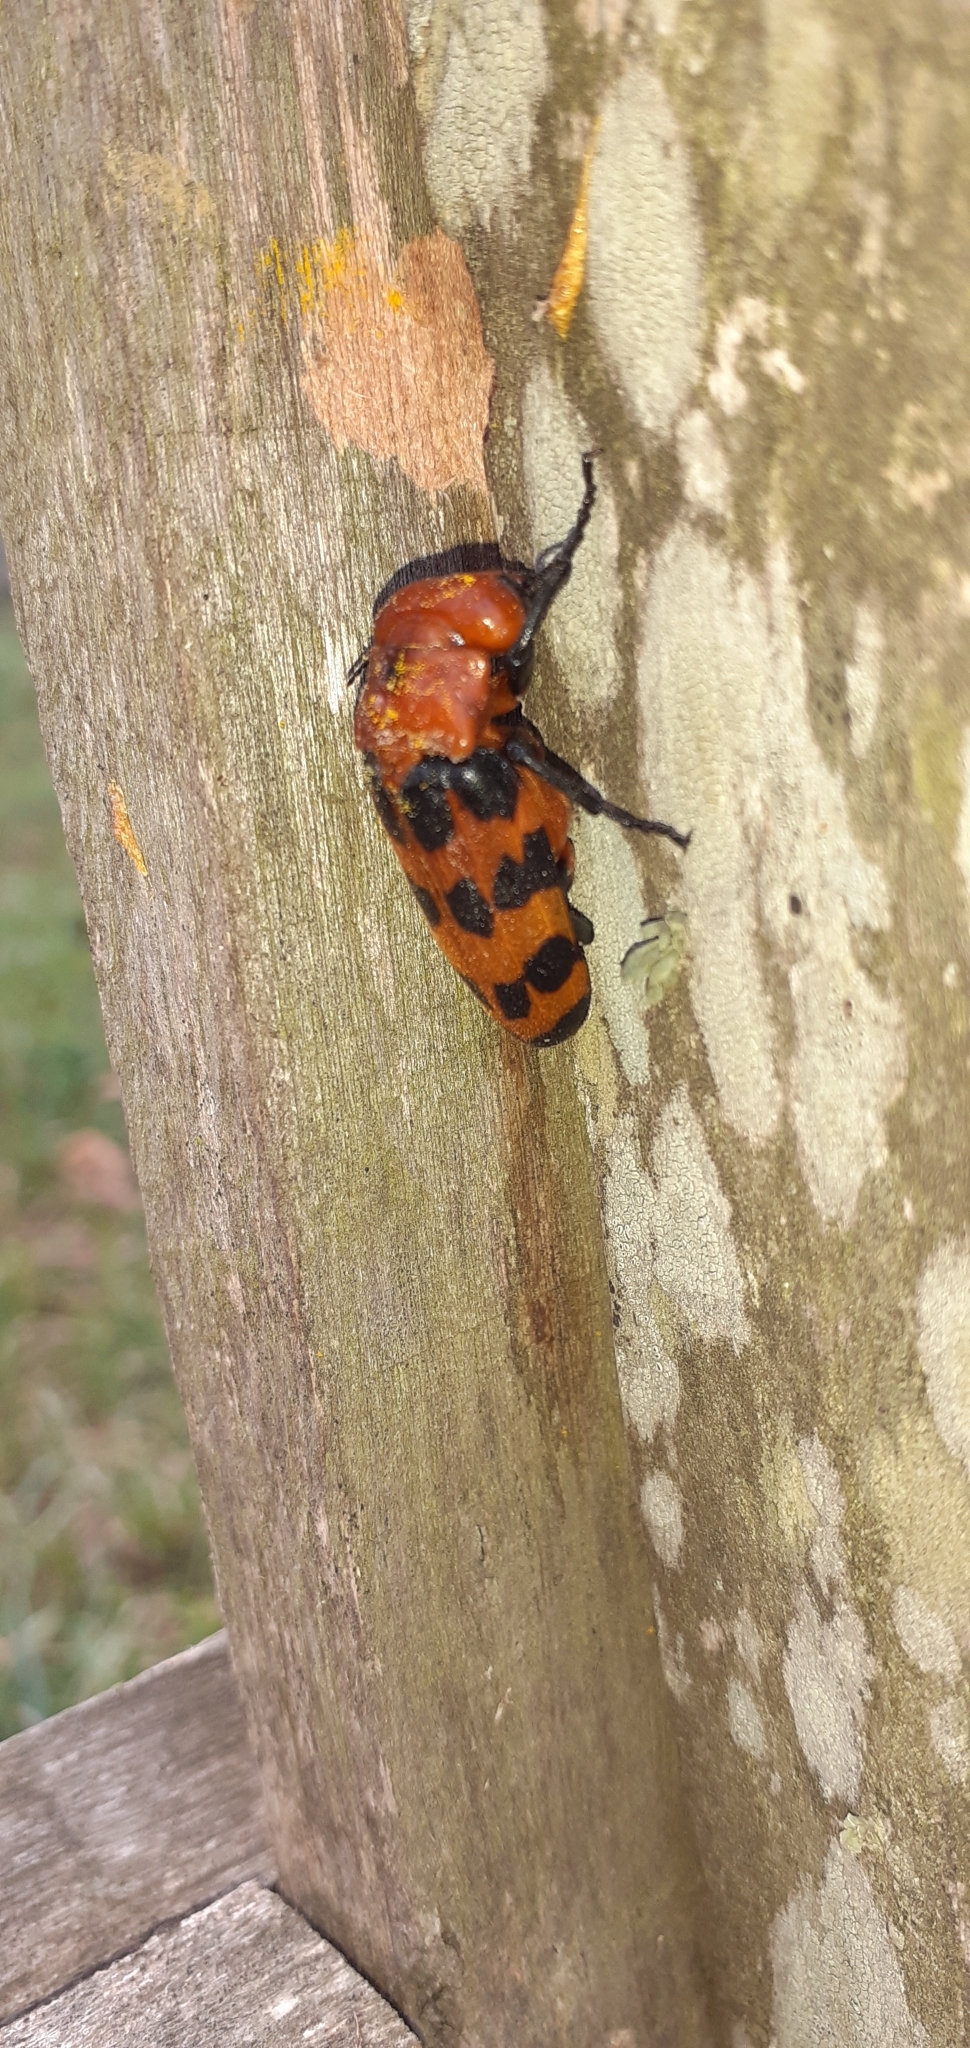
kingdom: Animalia
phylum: Arthropoda
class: Insecta
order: Coleoptera
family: Meloidae
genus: Cissites
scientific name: Cissites maculata
